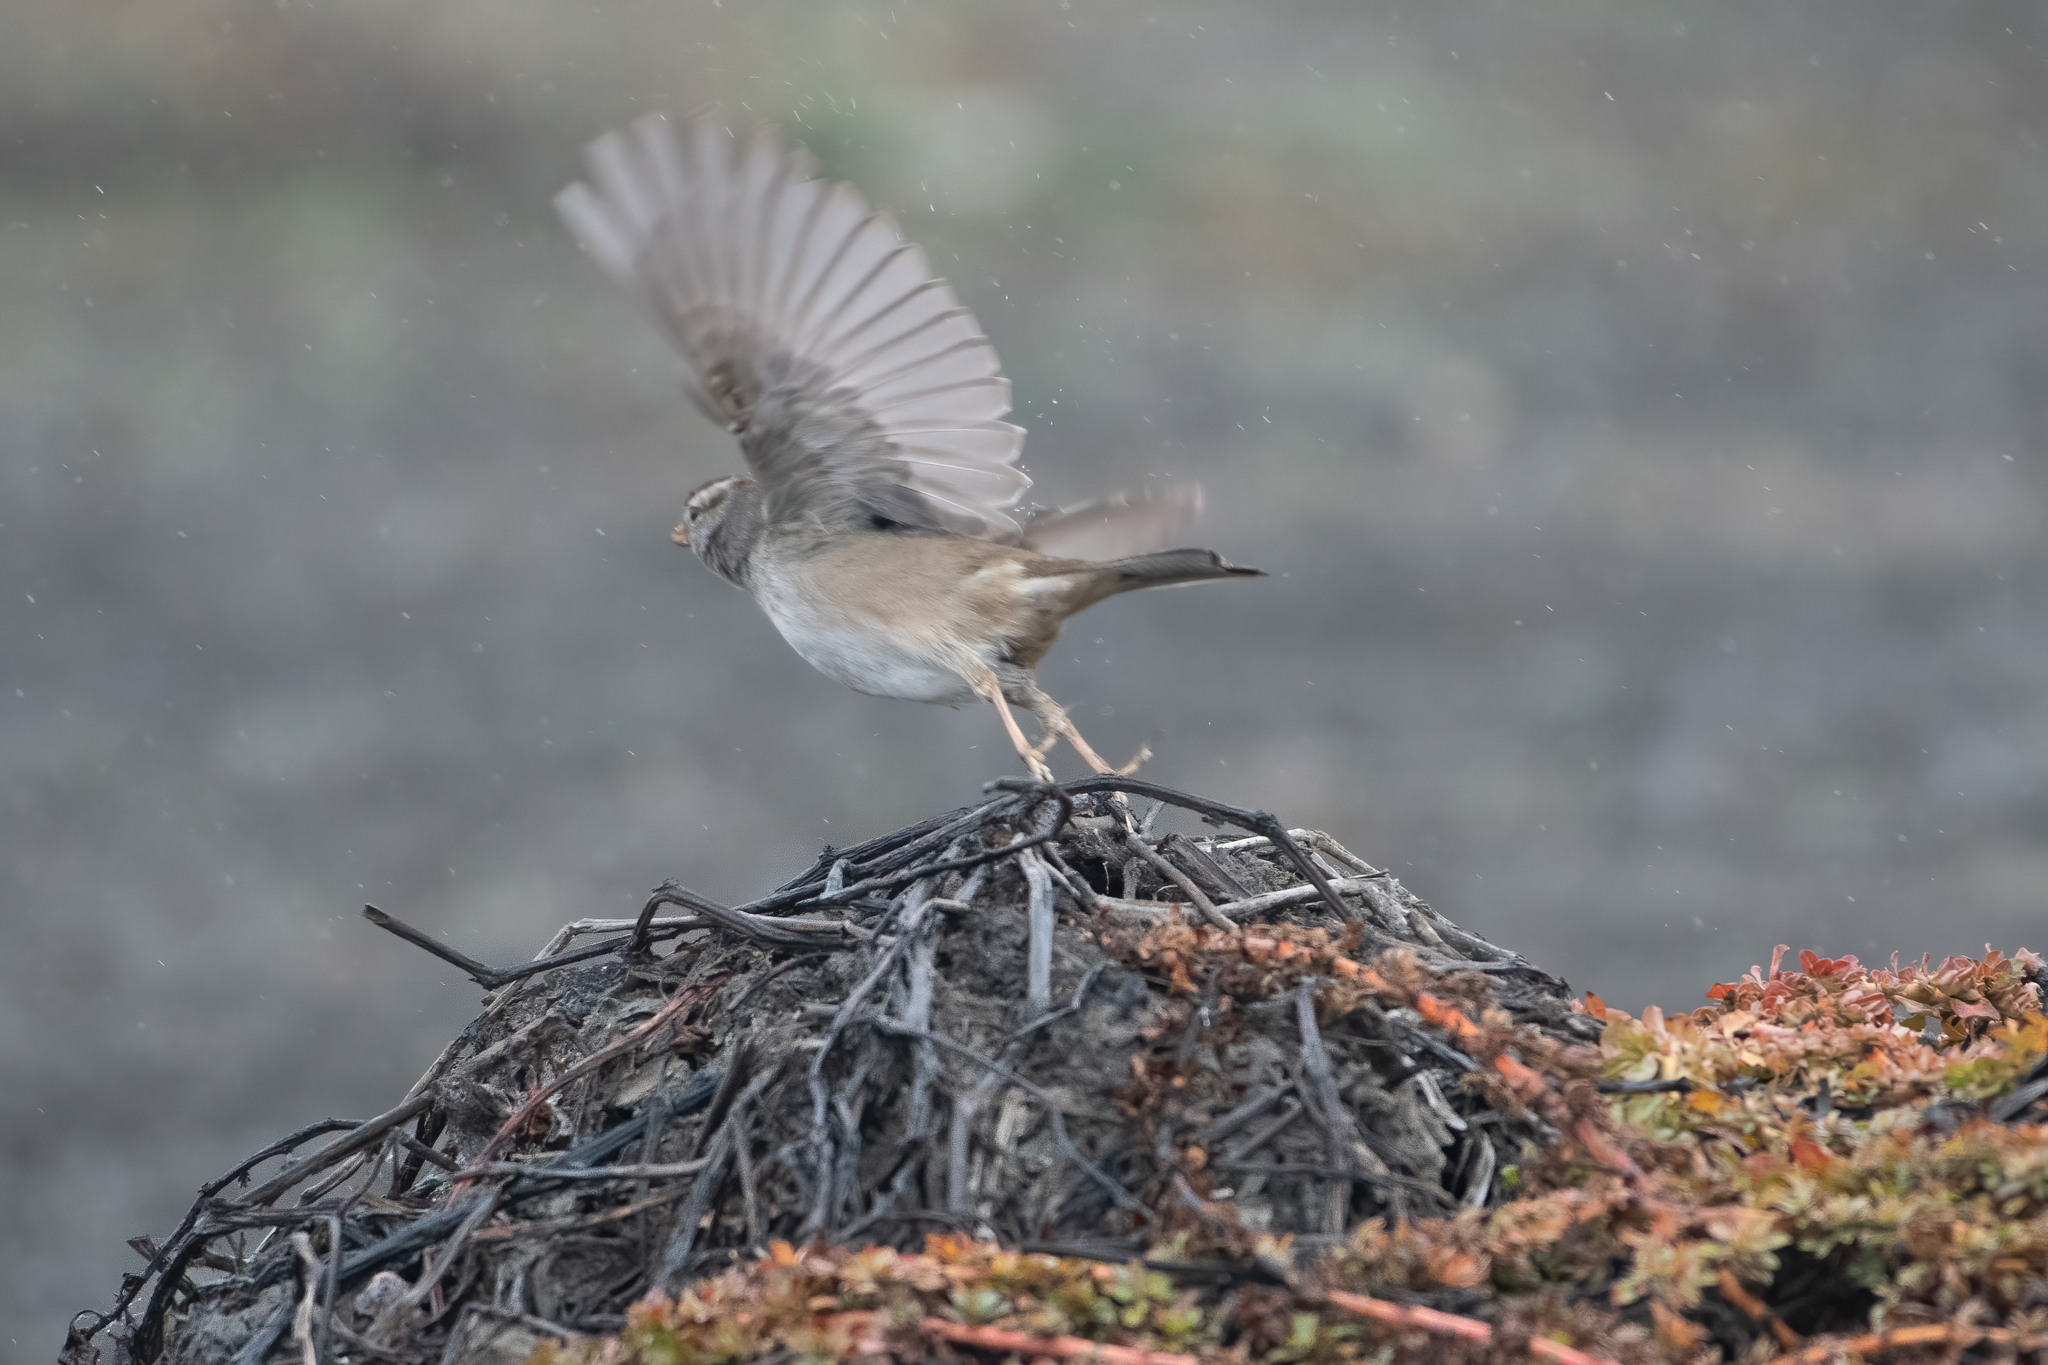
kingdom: Animalia
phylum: Chordata
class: Aves
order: Passeriformes
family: Passerellidae
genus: Zonotrichia
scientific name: Zonotrichia leucophrys
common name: White-crowned sparrow
